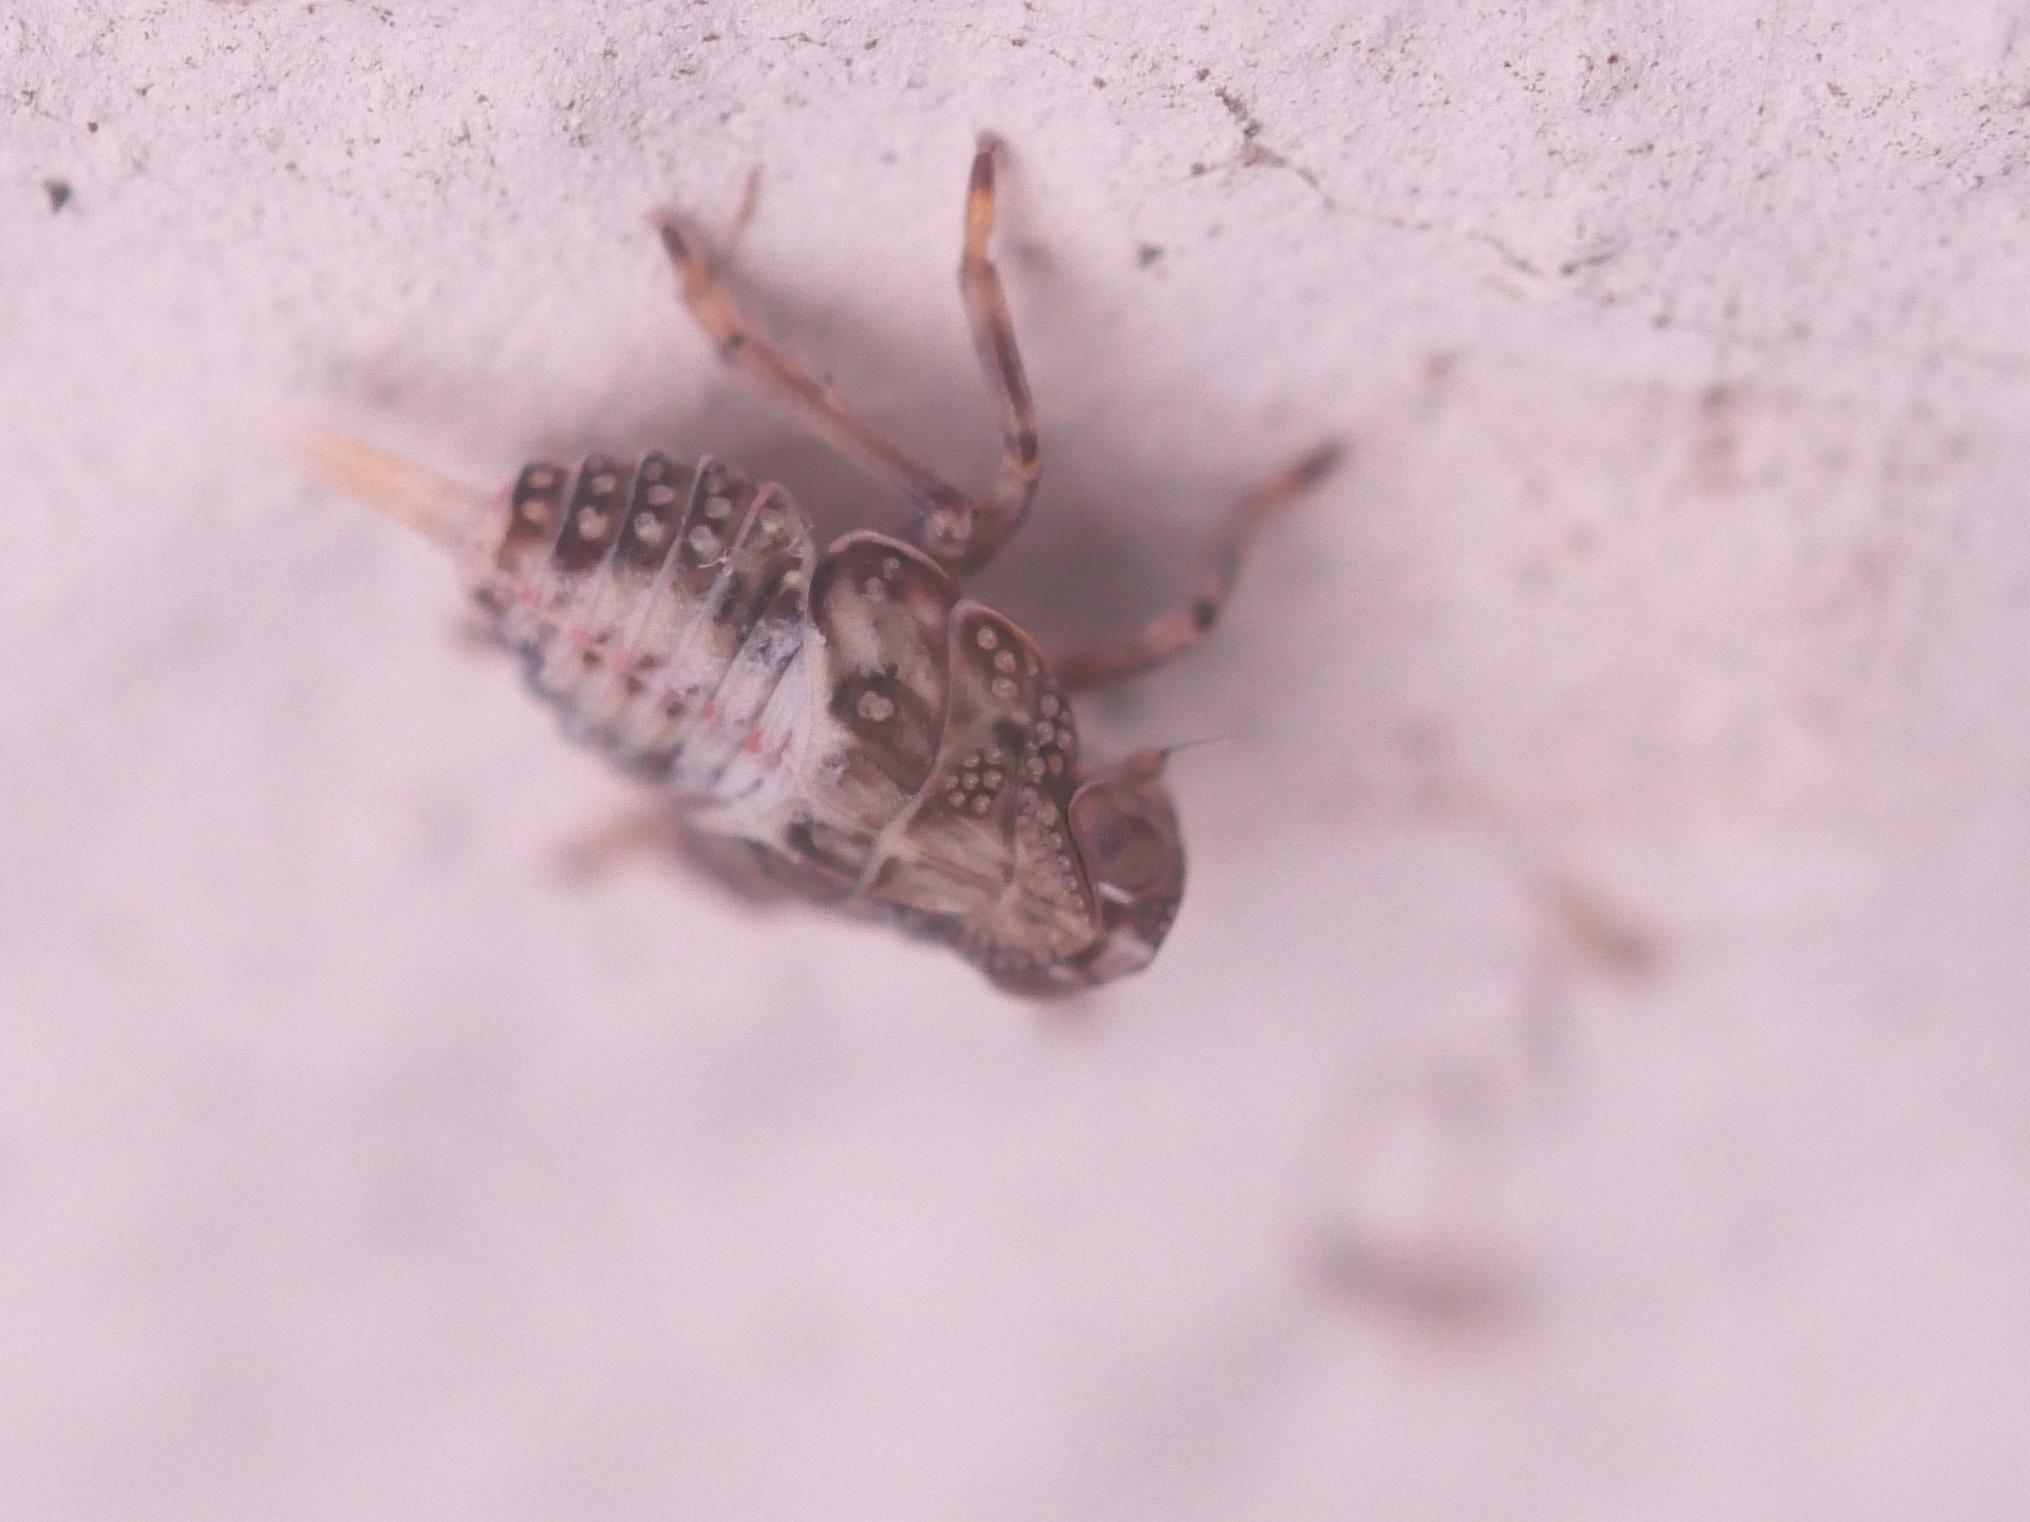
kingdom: Animalia
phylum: Arthropoda
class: Insecta
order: Hemiptera
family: Issidae
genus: Issus
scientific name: Issus coleoptratus
